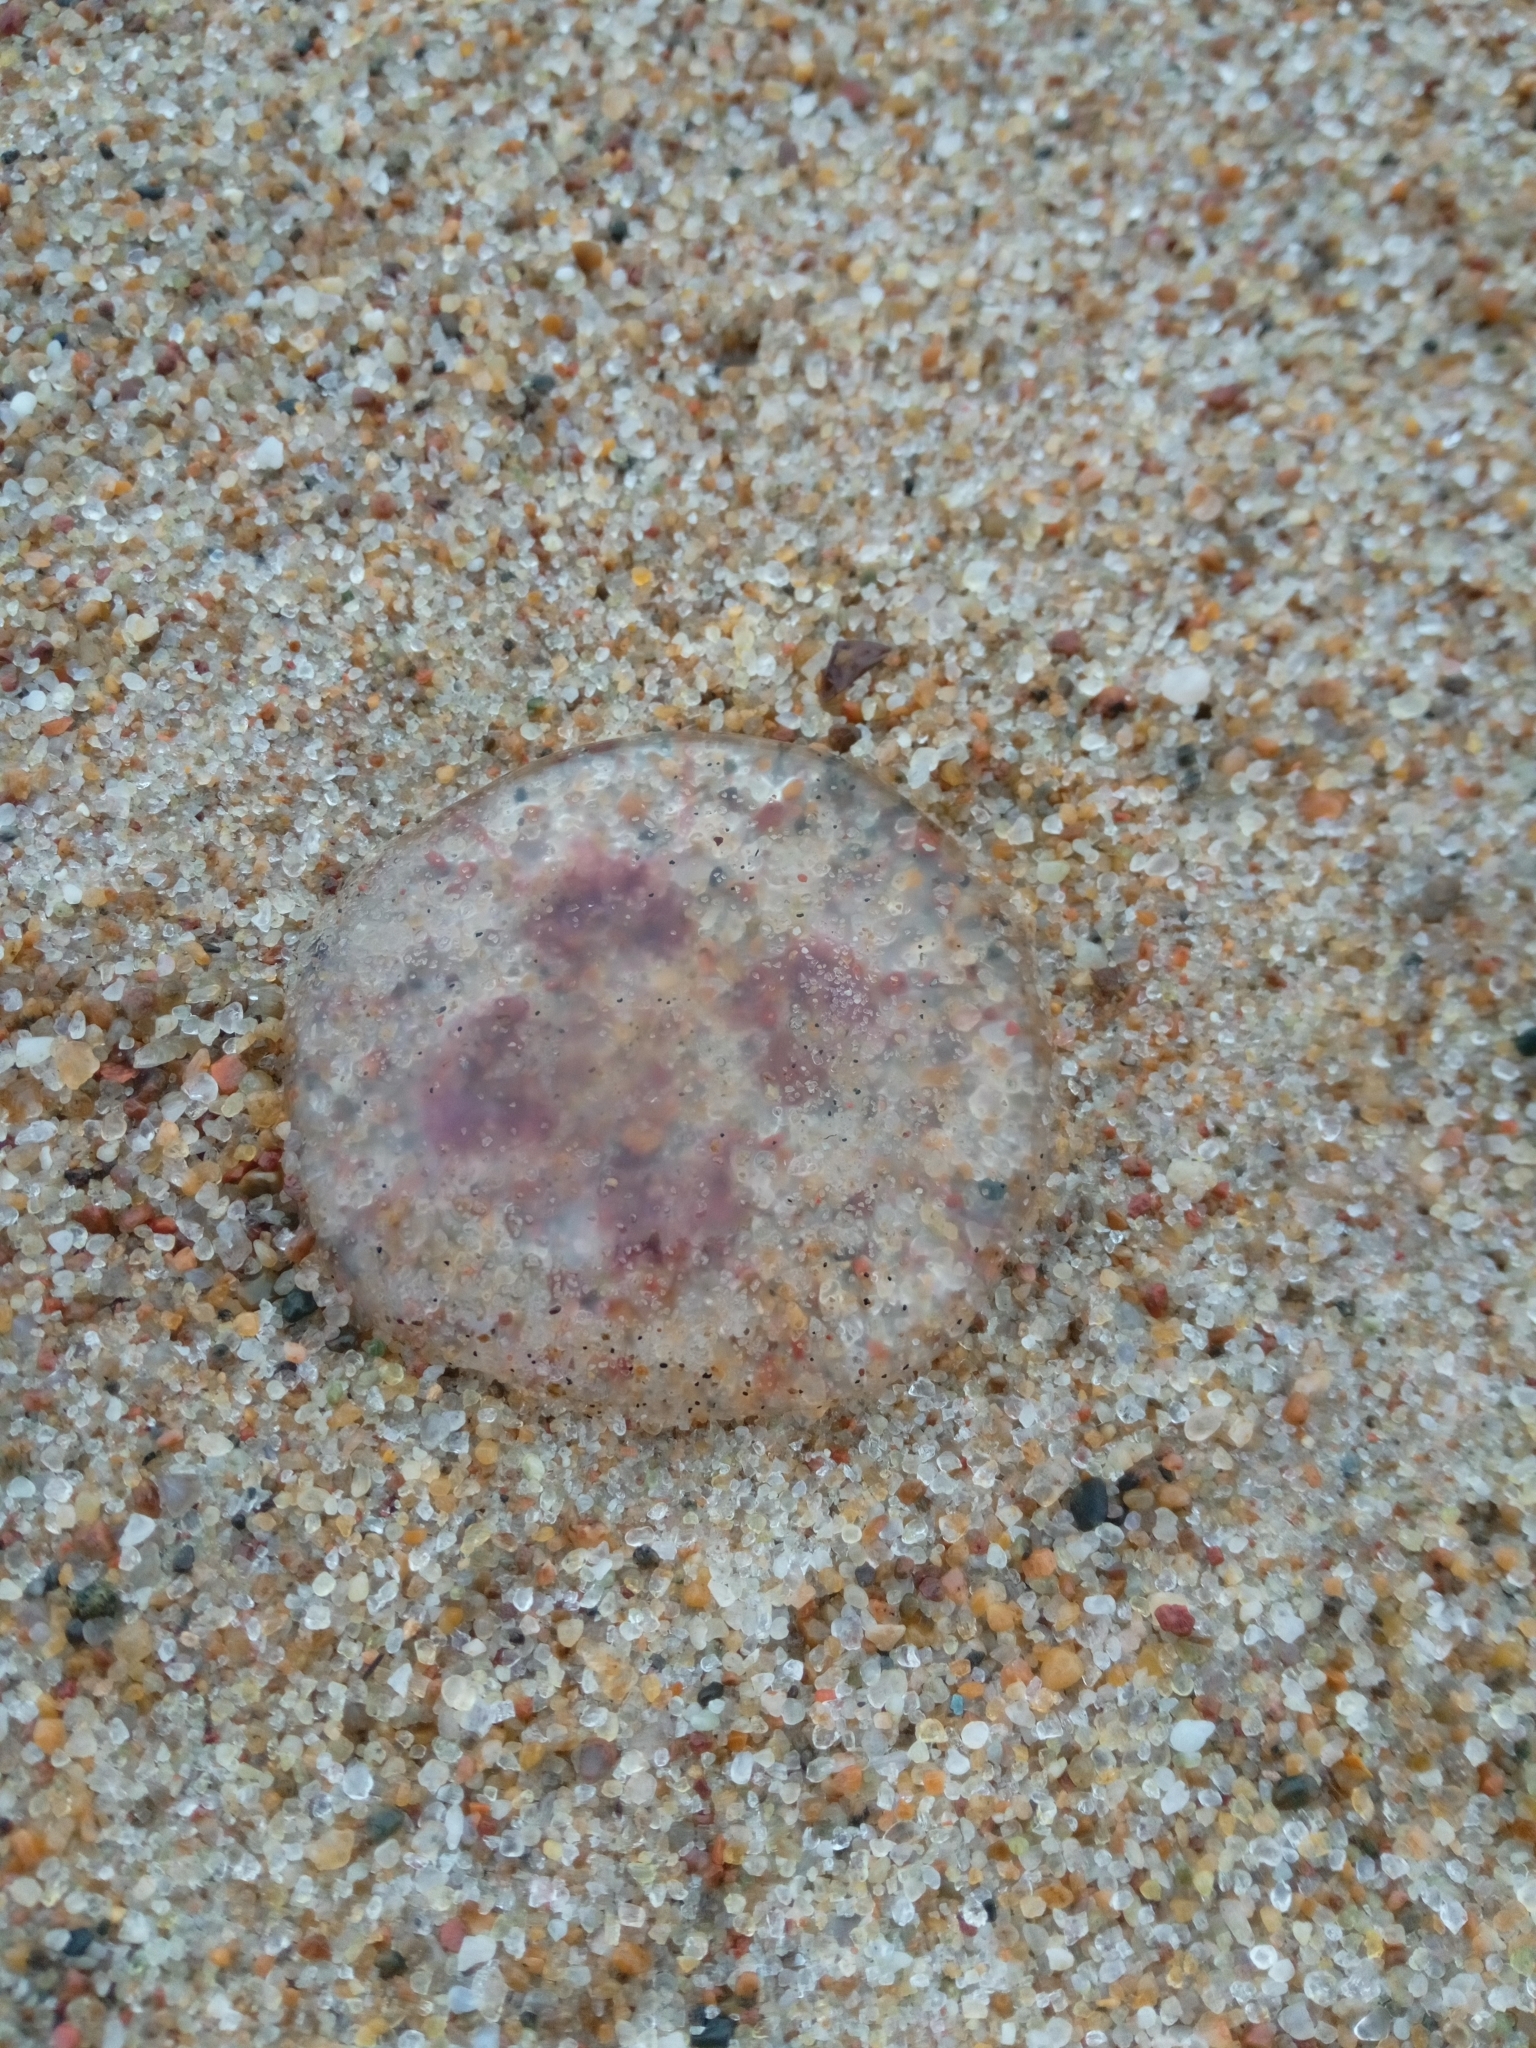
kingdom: Animalia
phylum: Cnidaria
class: Scyphozoa
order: Semaeostomeae
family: Ulmaridae
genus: Aurelia
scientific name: Aurelia aurita
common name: Moon jellyfish
